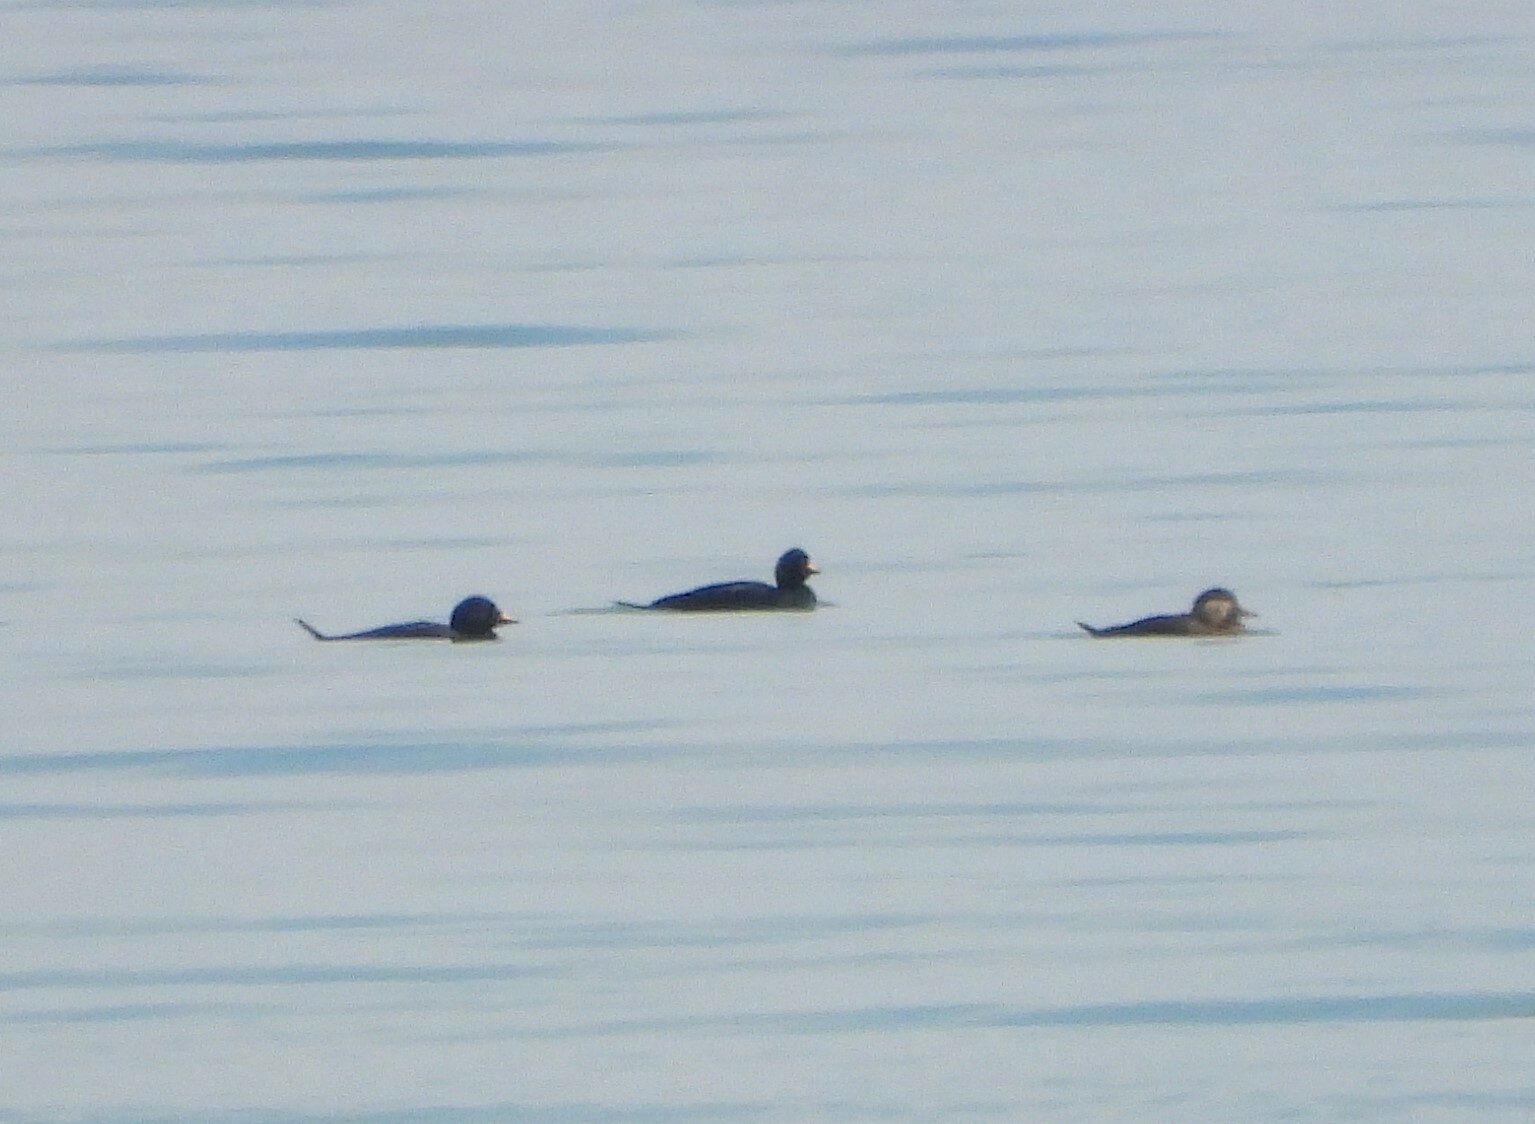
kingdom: Animalia
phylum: Chordata
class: Aves
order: Anseriformes
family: Anatidae
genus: Melanitta
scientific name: Melanitta nigra
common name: Common scoter
